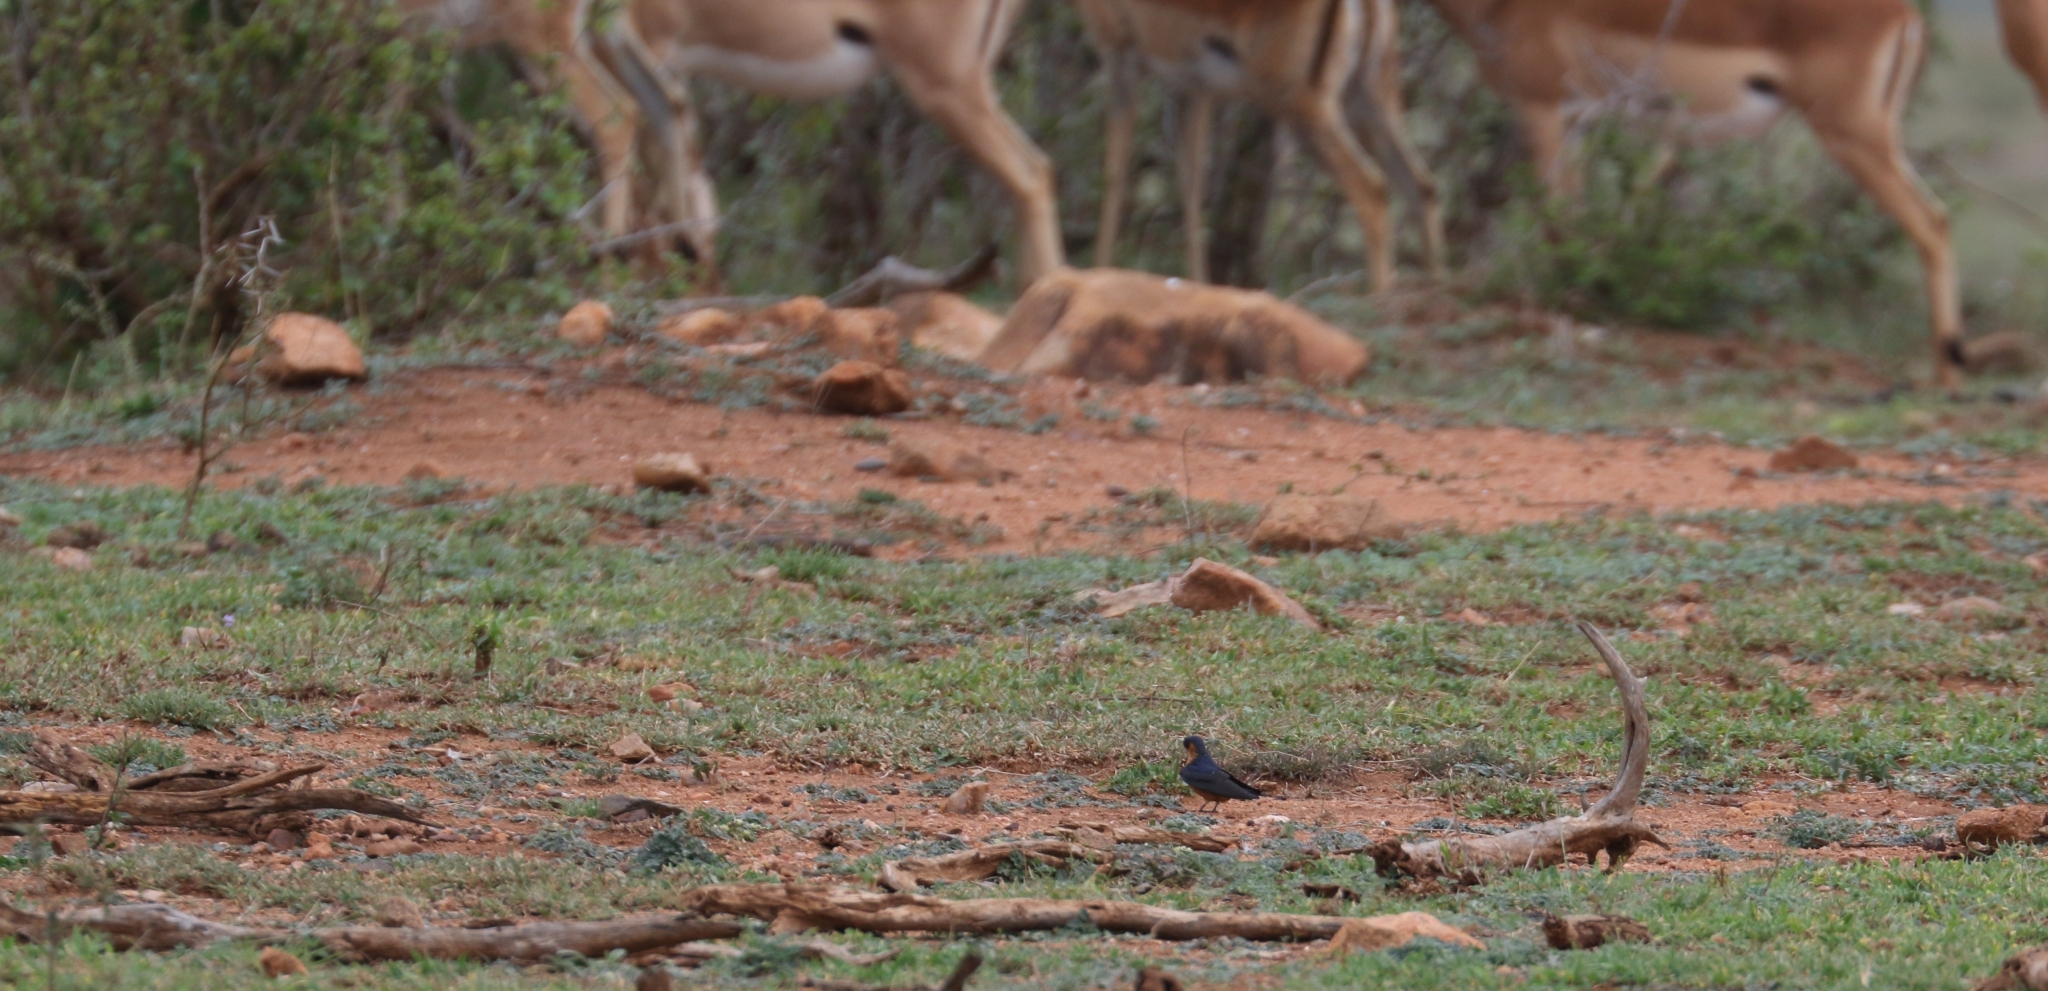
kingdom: Animalia
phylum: Chordata
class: Aves
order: Passeriformes
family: Hirundinidae
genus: Cecropis
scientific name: Cecropis semirufa
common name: Red-breasted swallow
